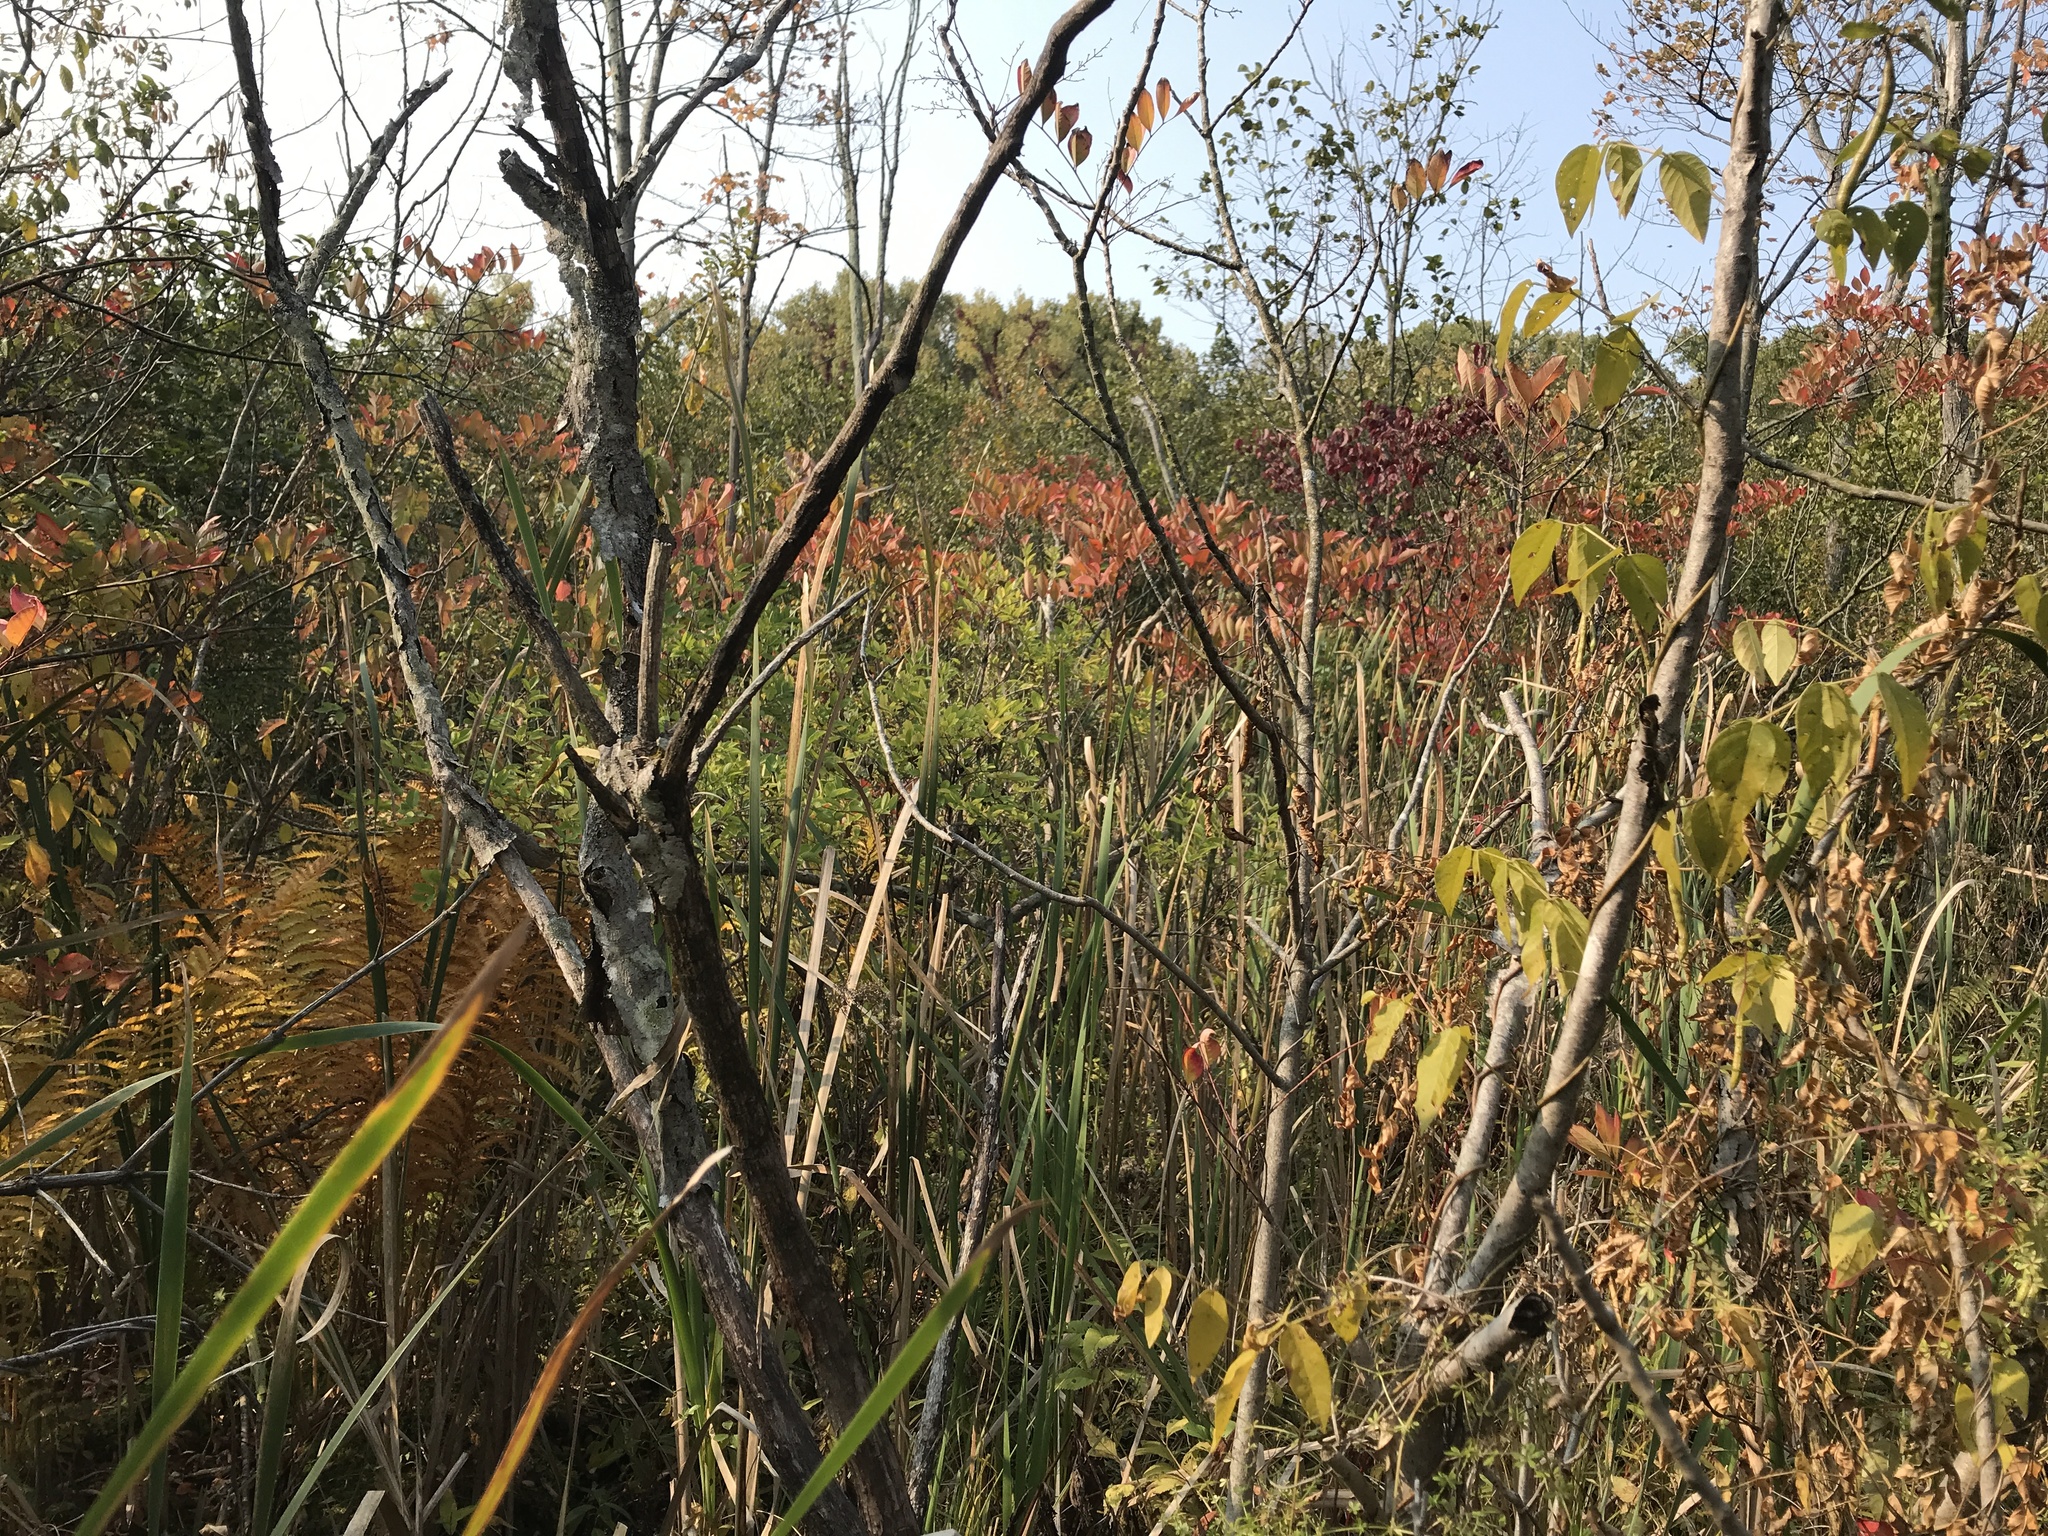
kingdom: Plantae
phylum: Tracheophyta
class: Magnoliopsida
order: Sapindales
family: Anacardiaceae
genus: Toxicodendron
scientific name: Toxicodendron vernix
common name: Poison sumac
